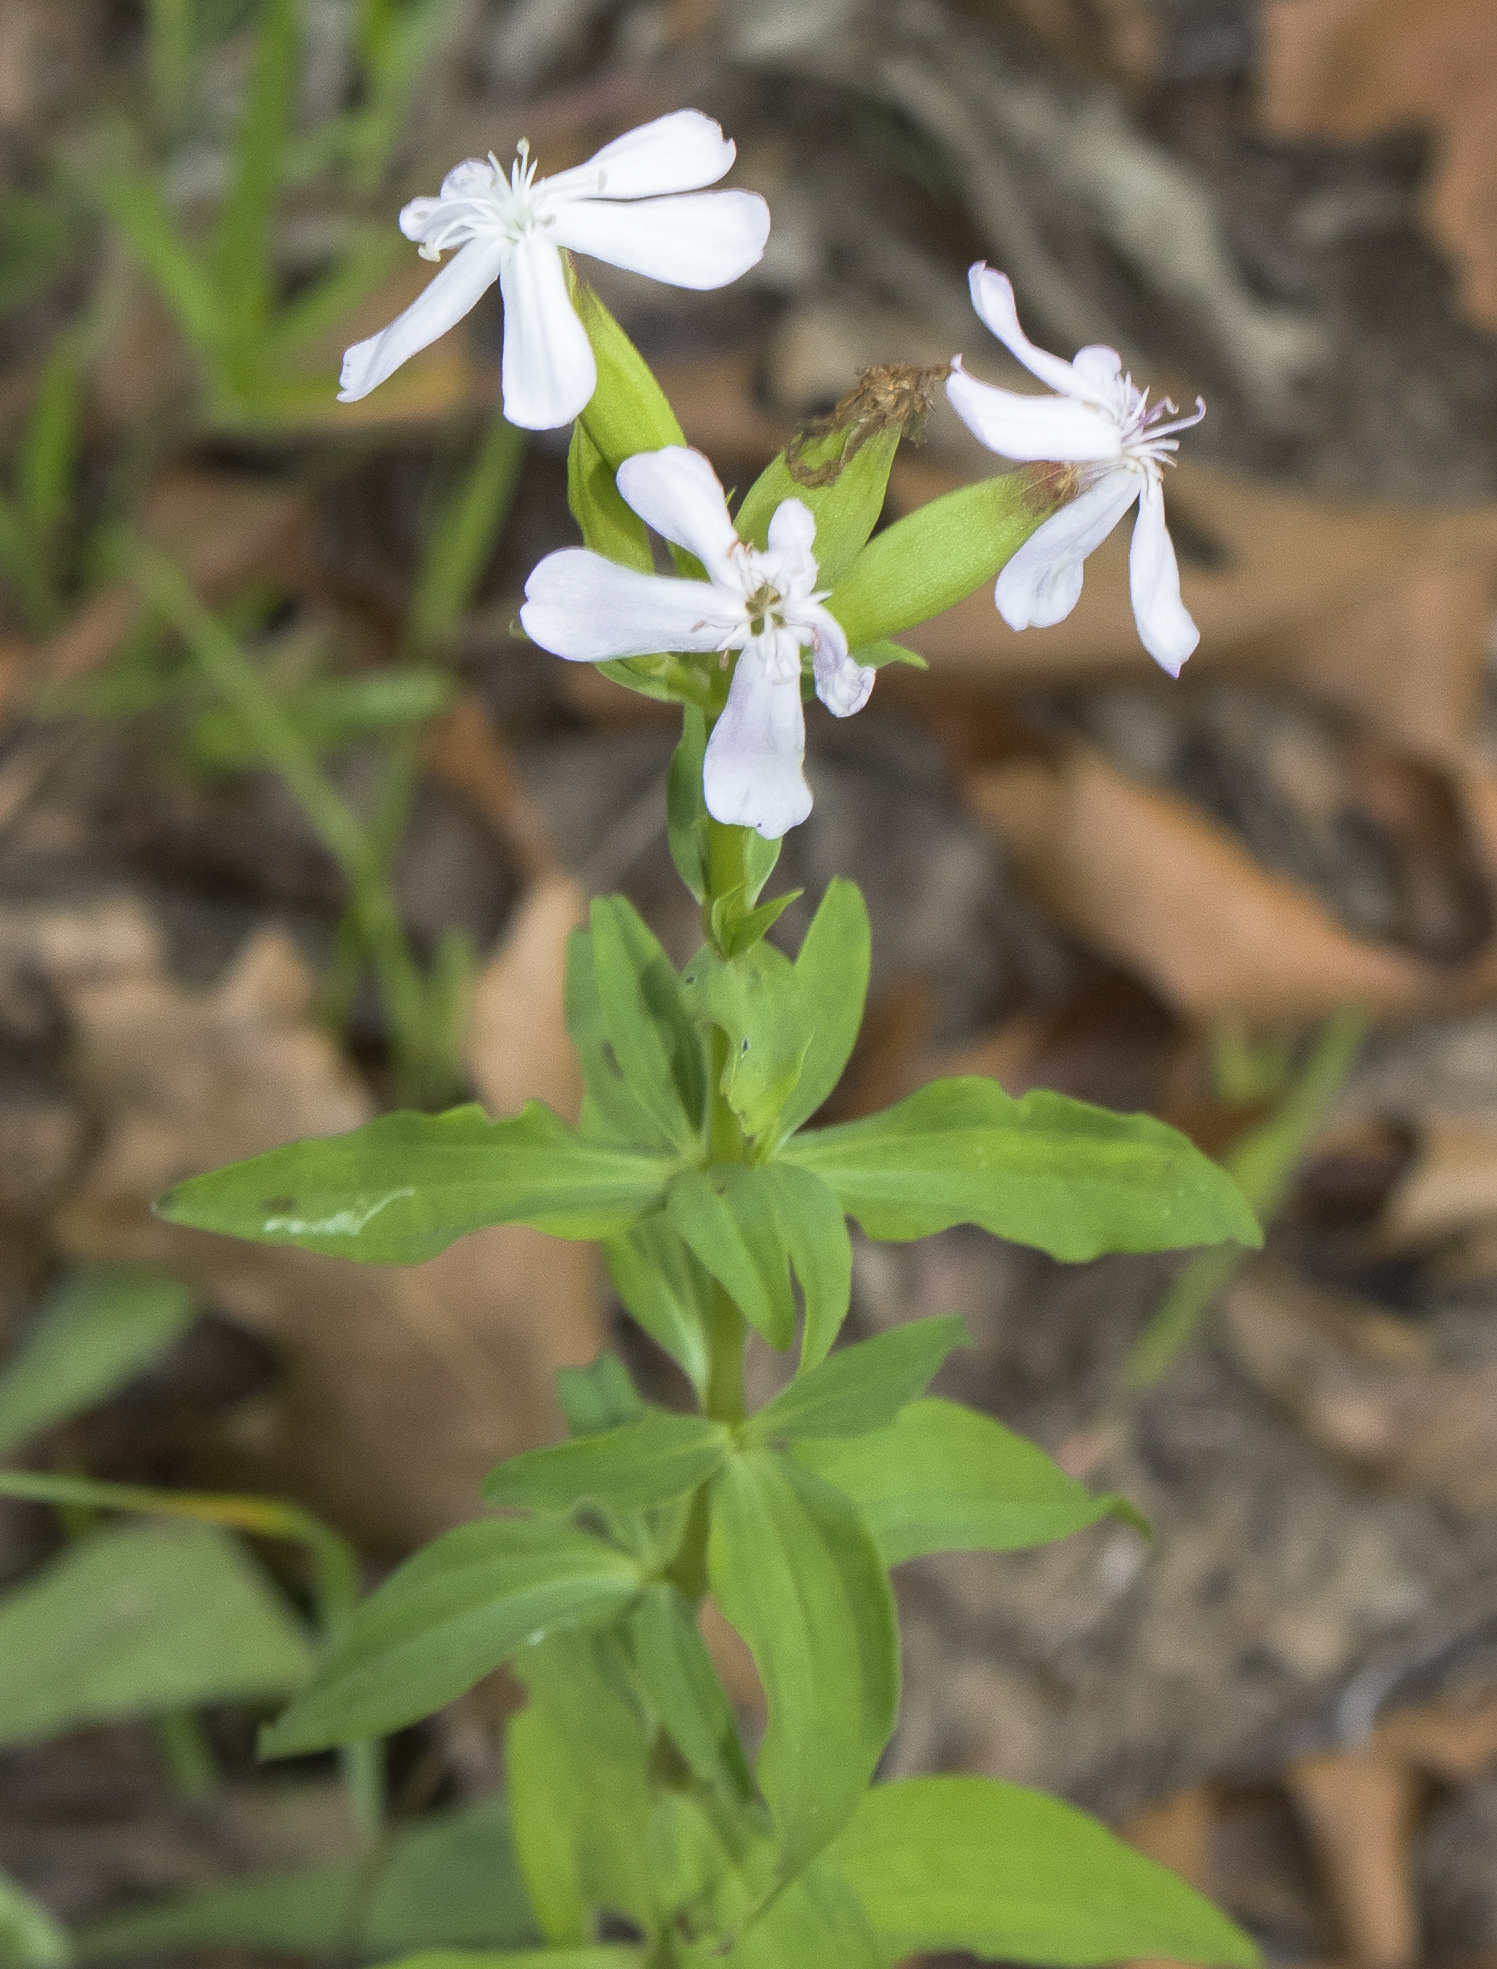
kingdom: Plantae
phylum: Tracheophyta
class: Magnoliopsida
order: Caryophyllales
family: Caryophyllaceae
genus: Saponaria
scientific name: Saponaria officinalis
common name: Soapwort
